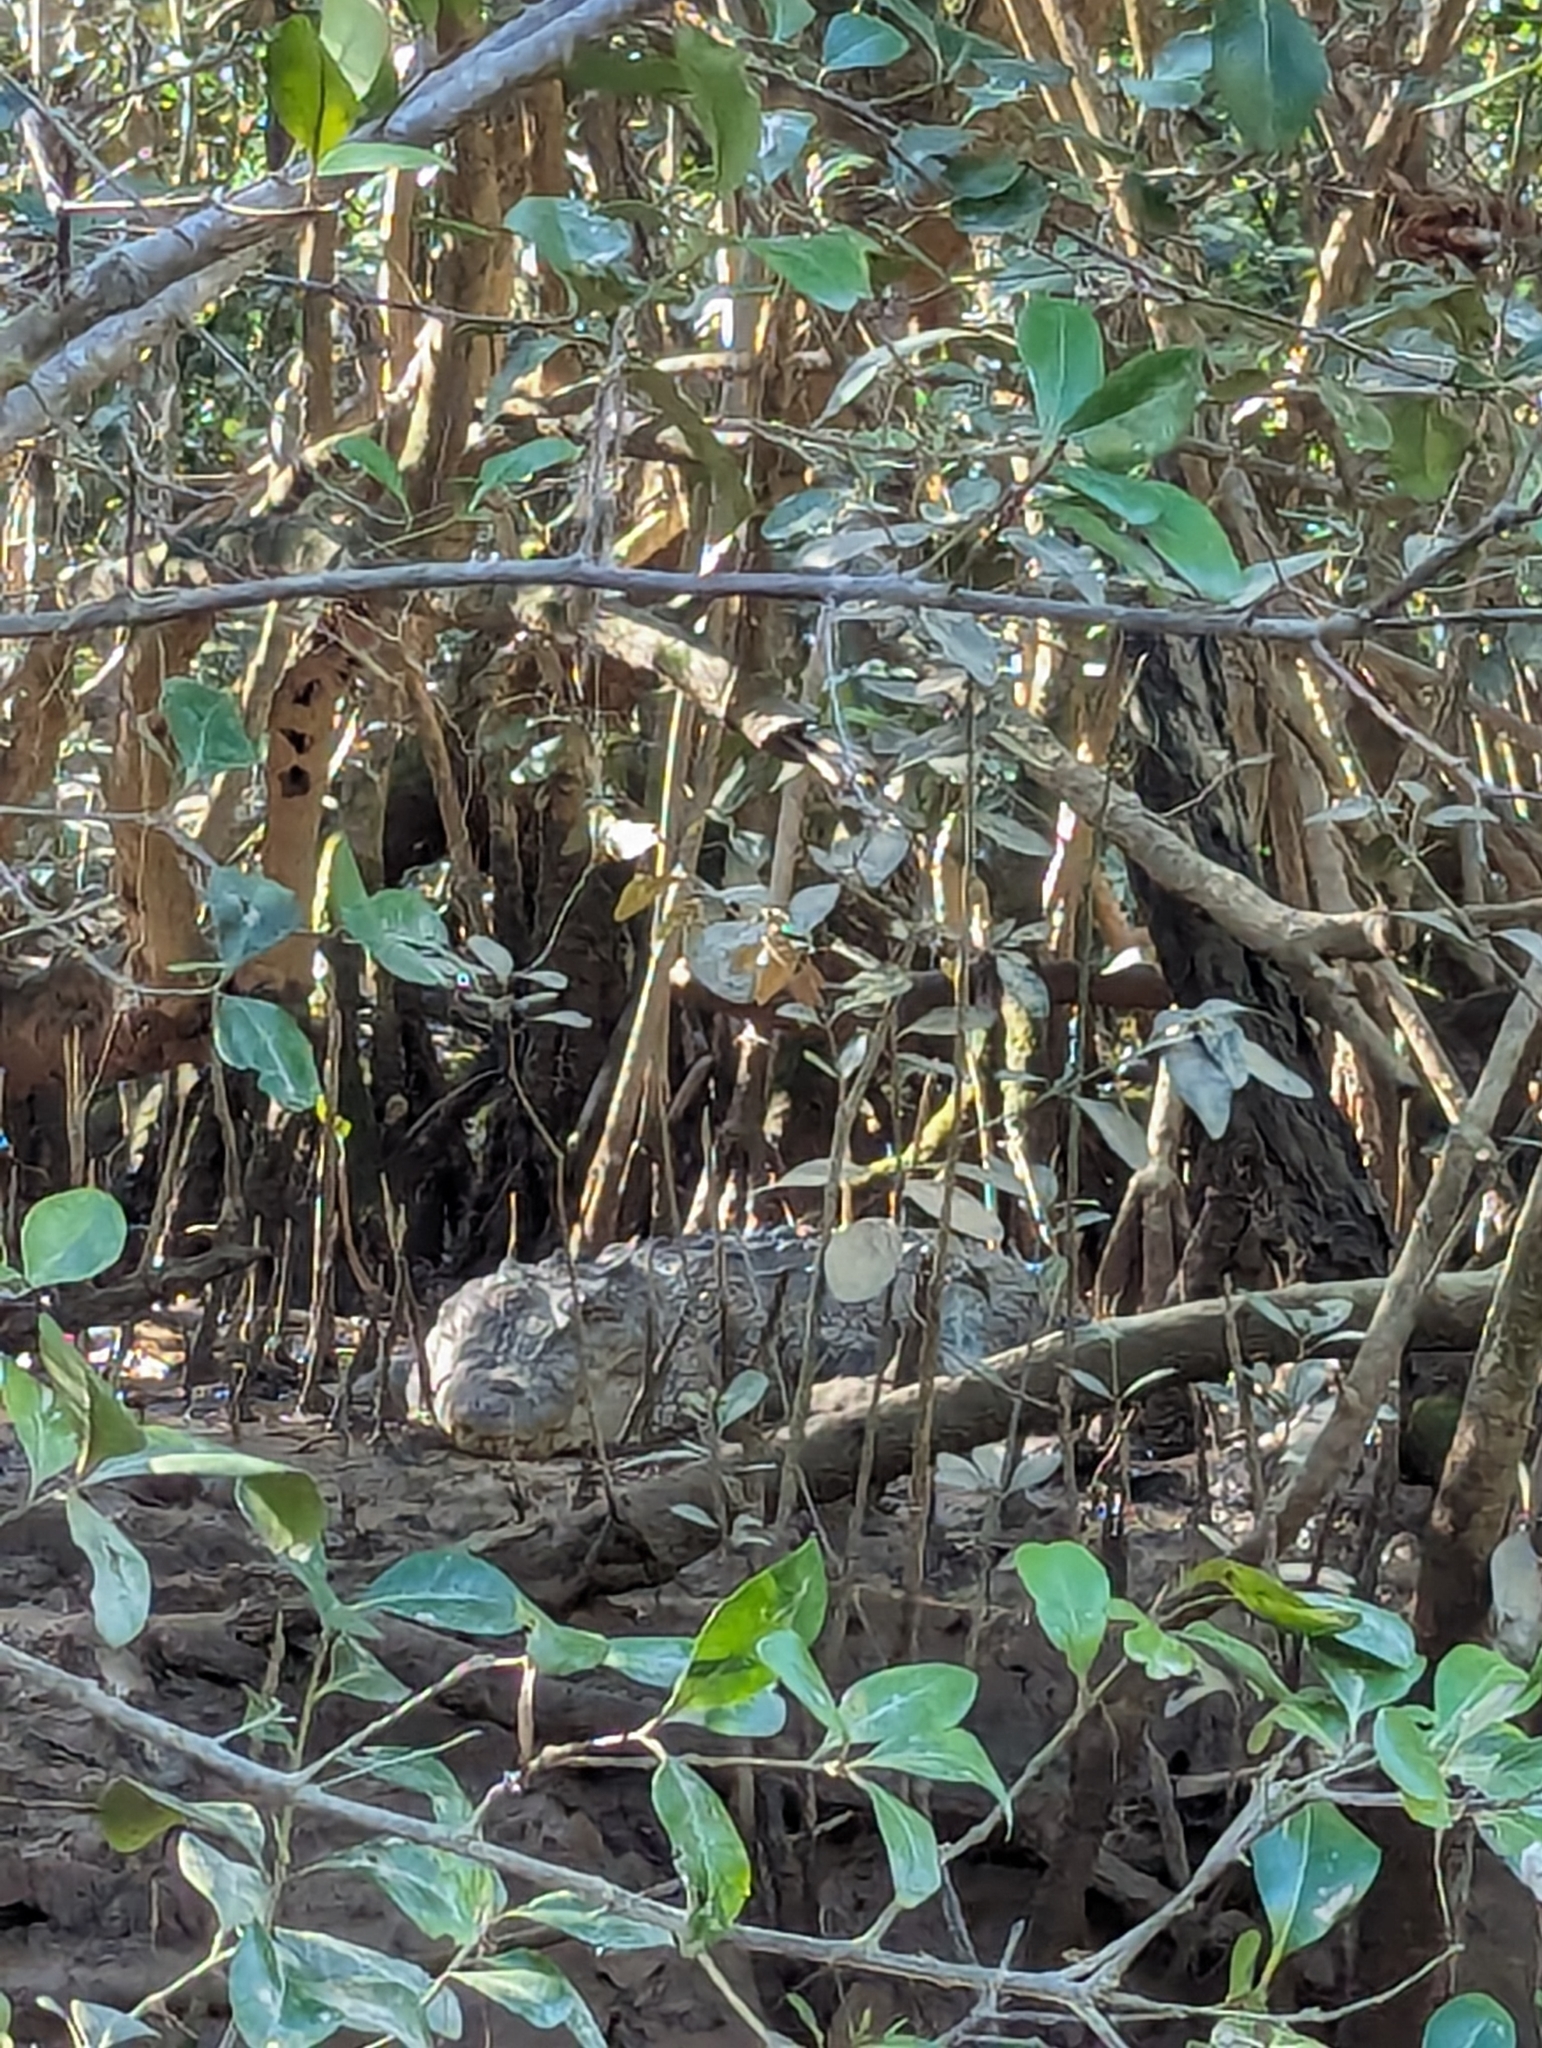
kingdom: Animalia
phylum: Chordata
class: Crocodylia
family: Crocodylidae
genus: Crocodylus
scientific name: Crocodylus porosus
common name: Saltwater crocodile
